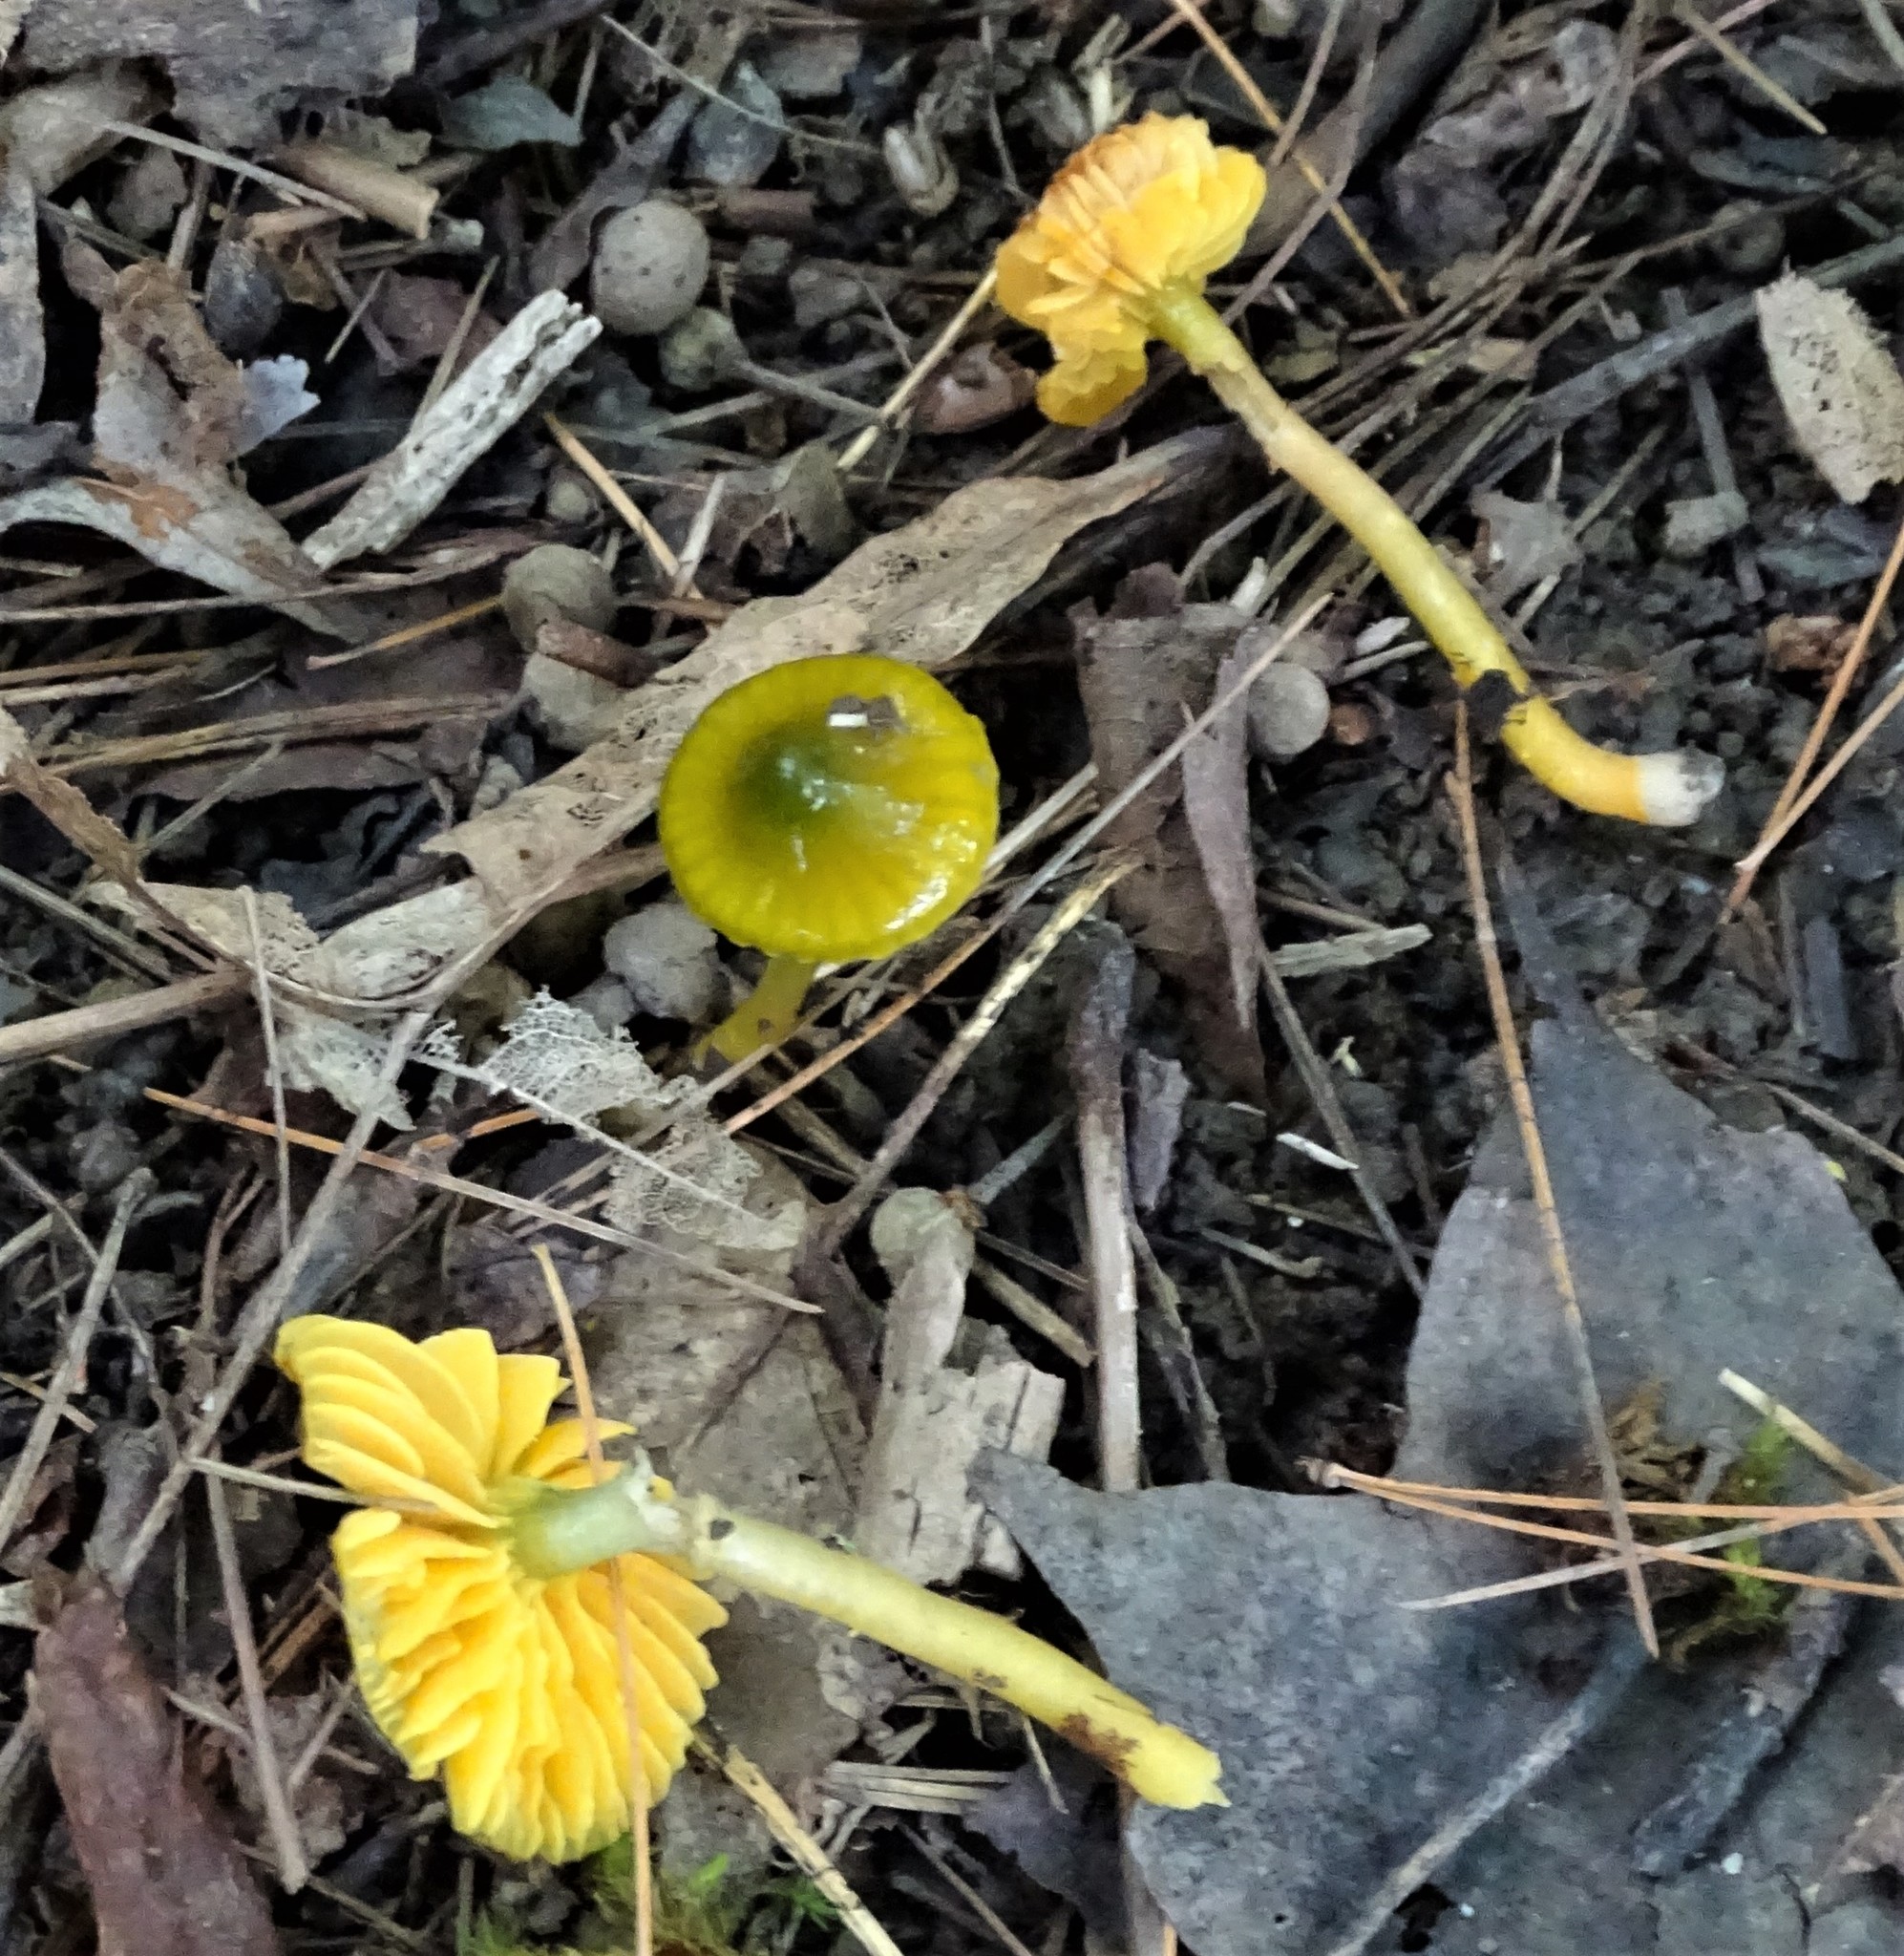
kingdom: Fungi
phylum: Basidiomycota
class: Agaricomycetes
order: Agaricales
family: Hygrophoraceae
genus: Gliophorus
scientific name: Gliophorus psittacinus
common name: Parrot wax-cap
